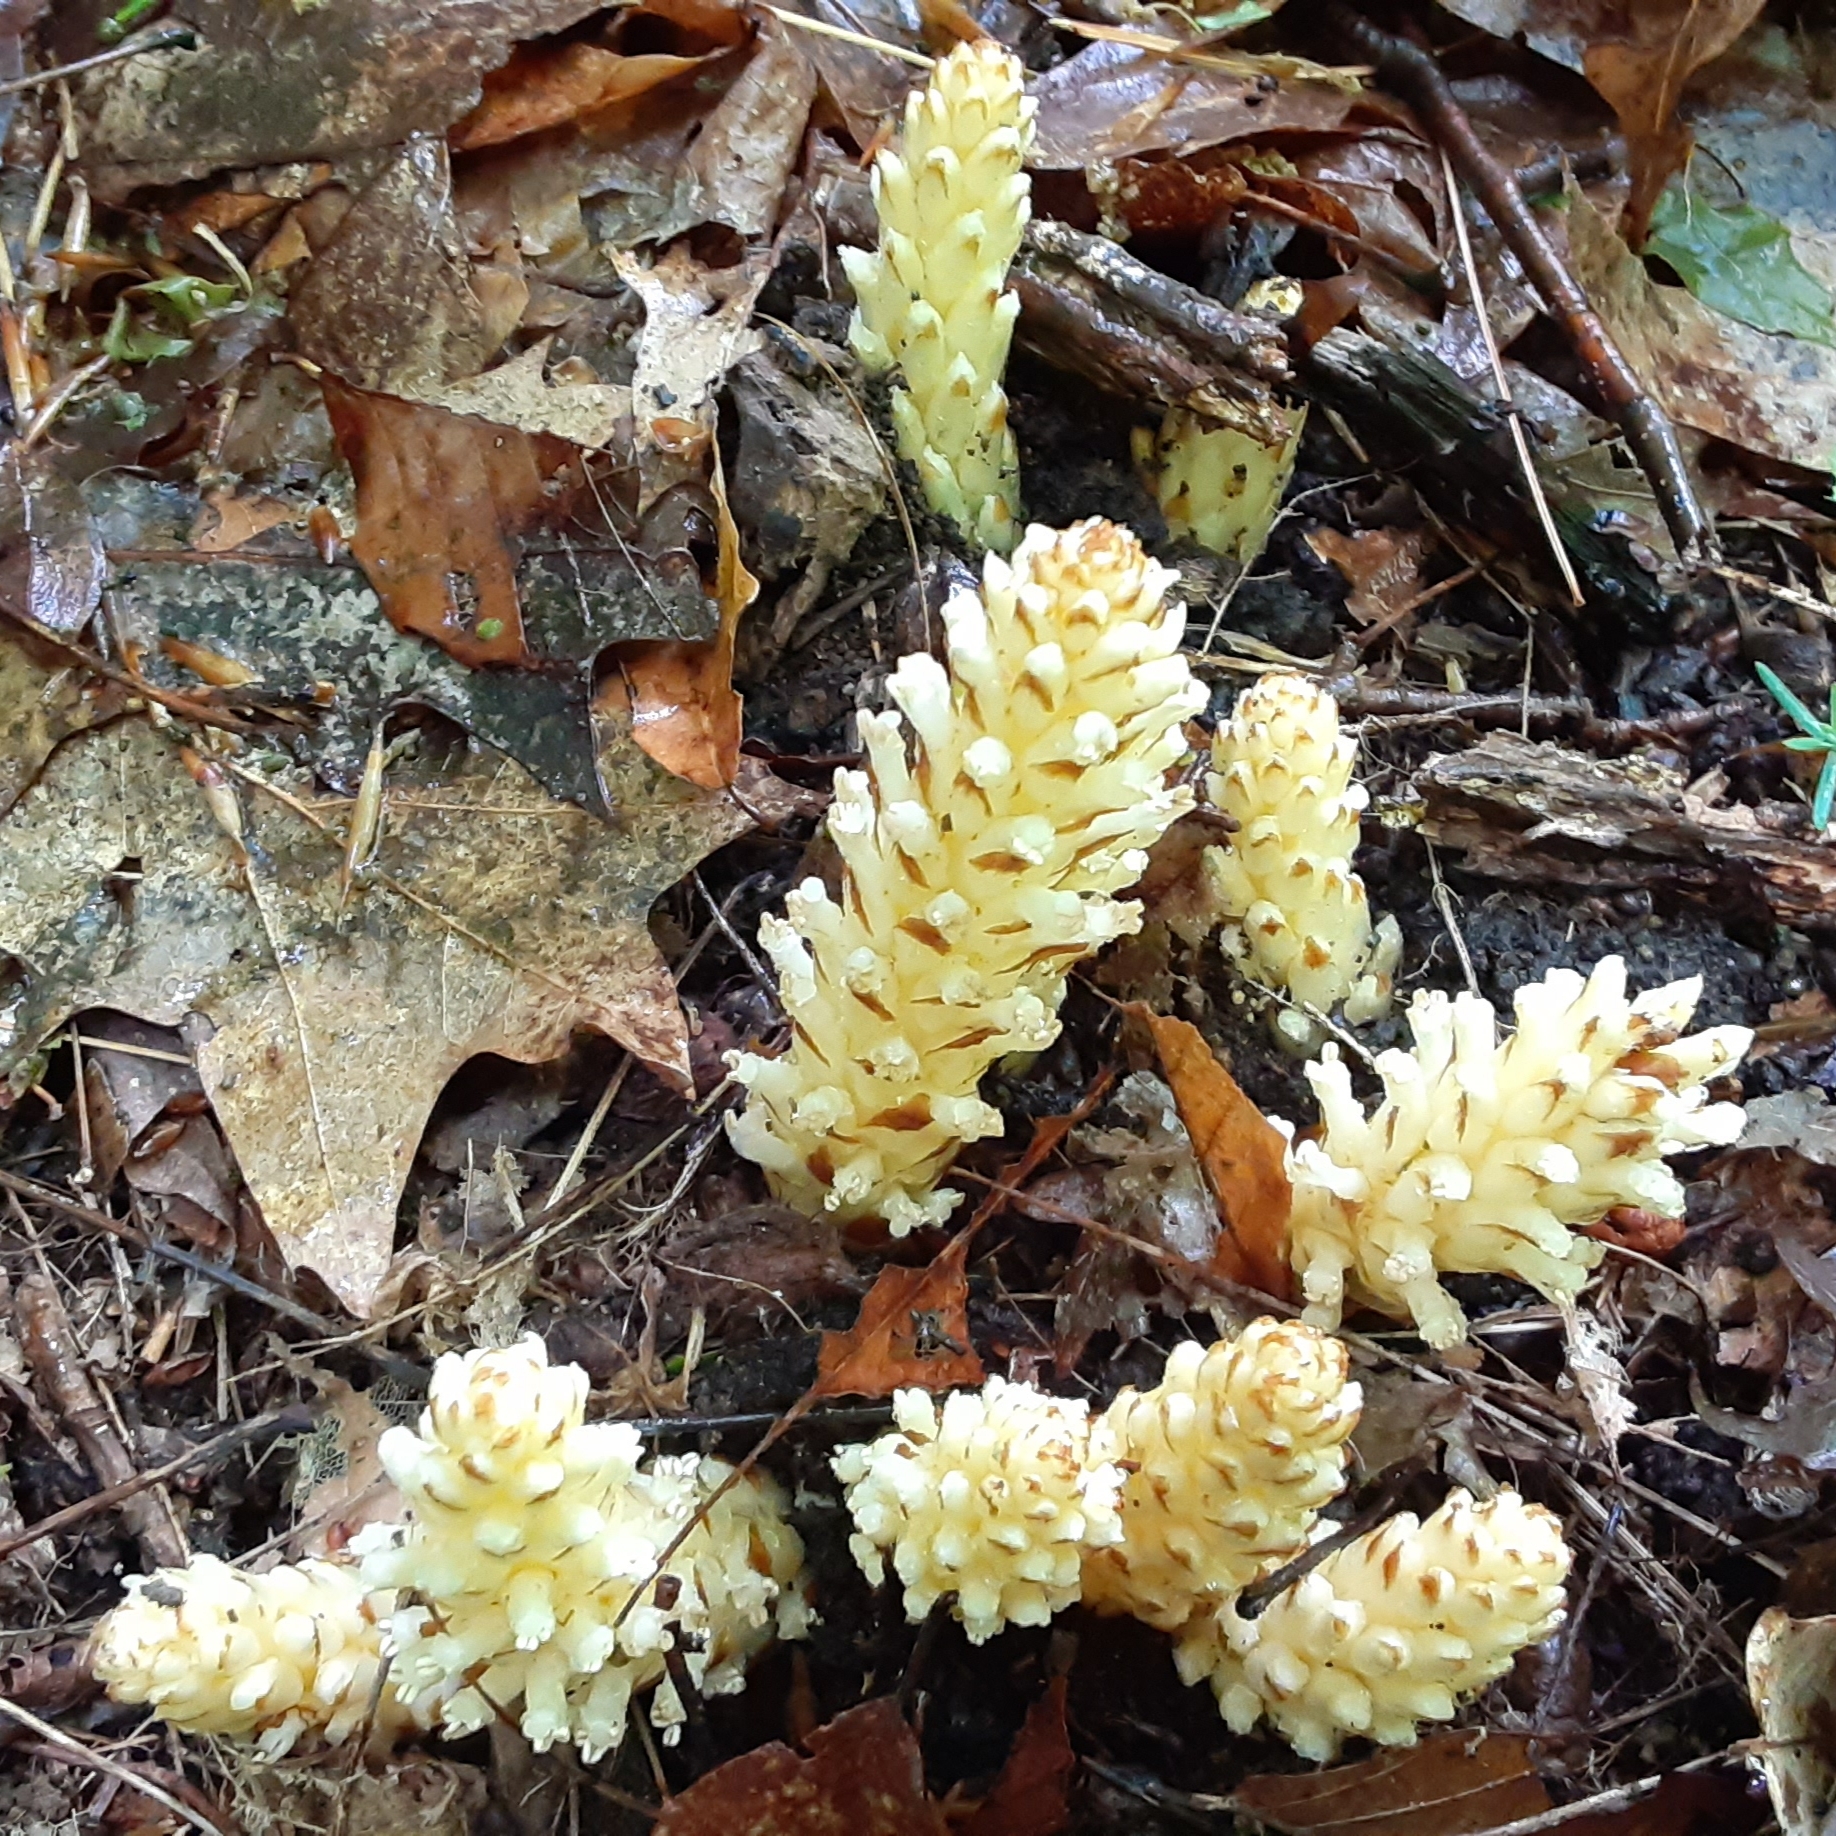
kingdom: Plantae
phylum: Tracheophyta
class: Magnoliopsida
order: Lamiales
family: Orobanchaceae
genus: Conopholis
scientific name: Conopholis americana
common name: American cancer-root
